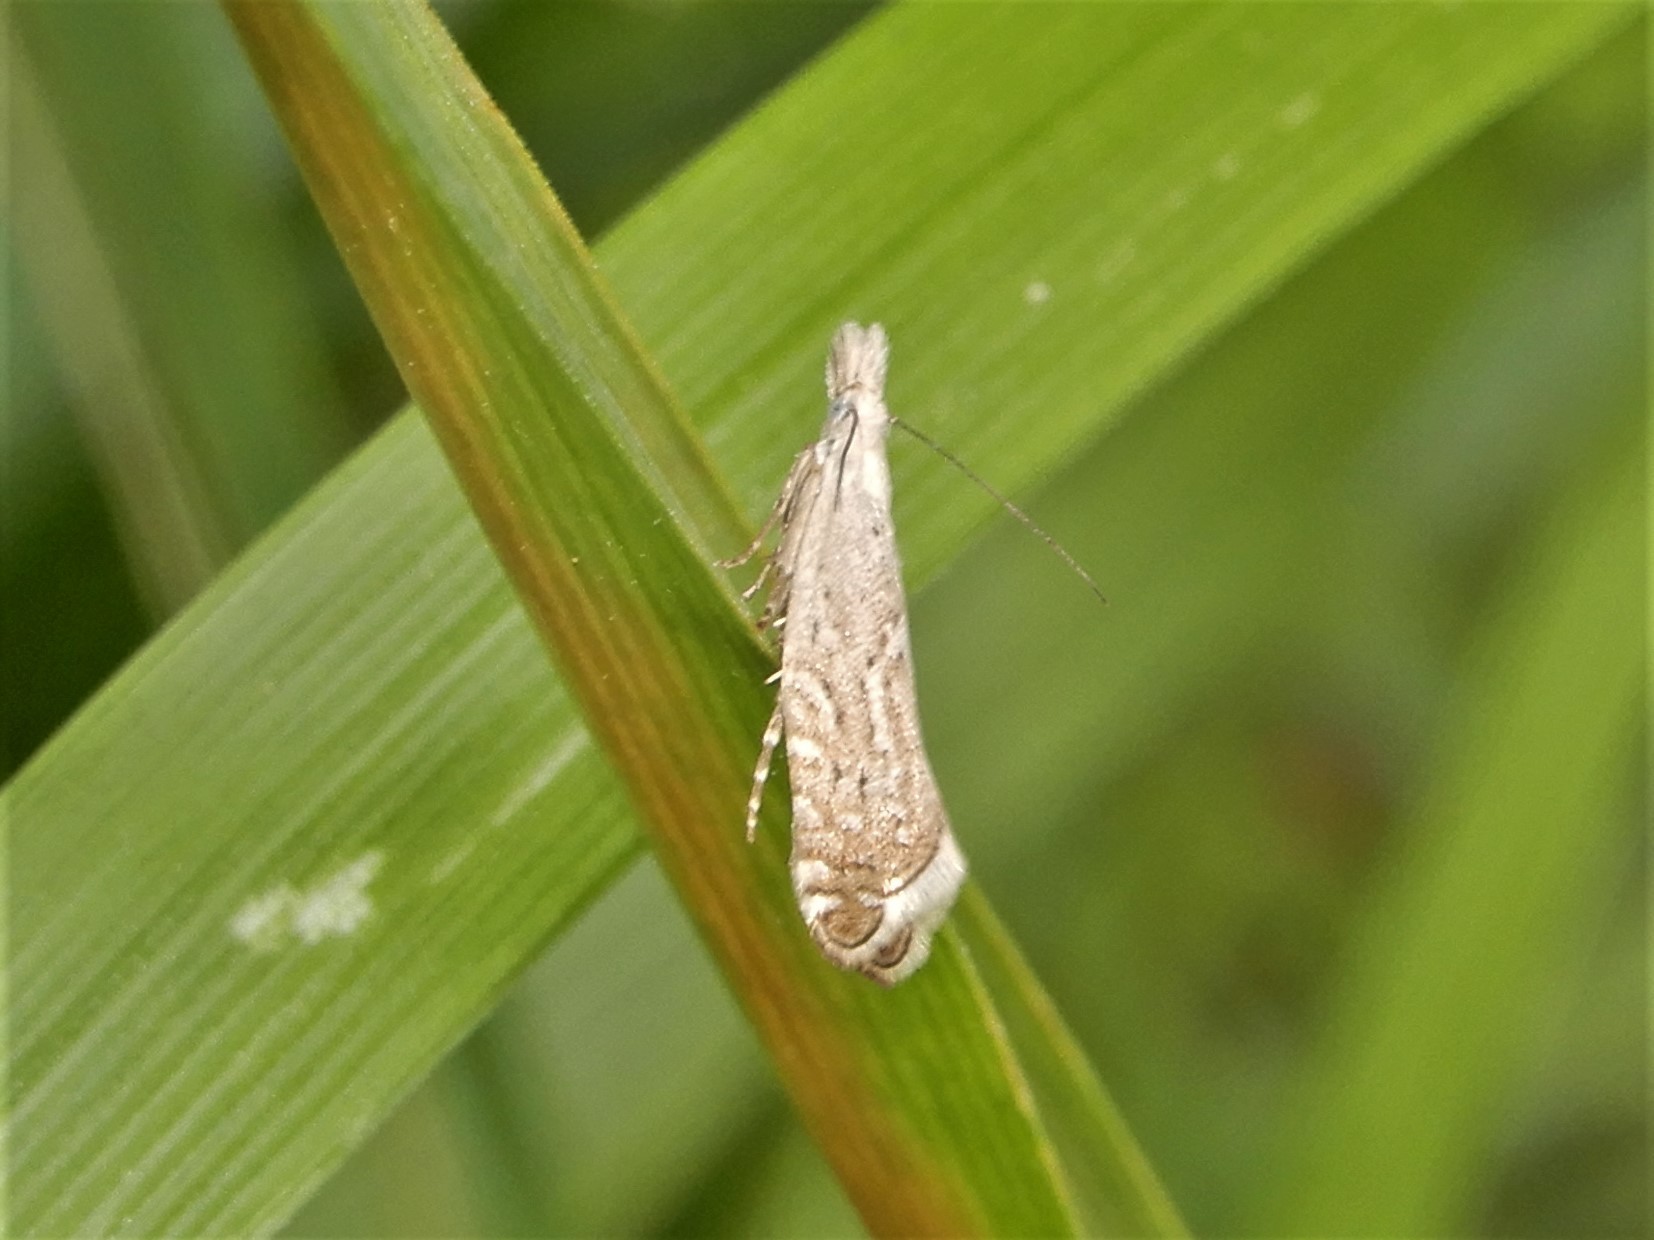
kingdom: Animalia
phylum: Arthropoda
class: Insecta
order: Lepidoptera
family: Glyphipterigidae
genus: Glyphipterix
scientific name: Glyphipterix achlyoessa
